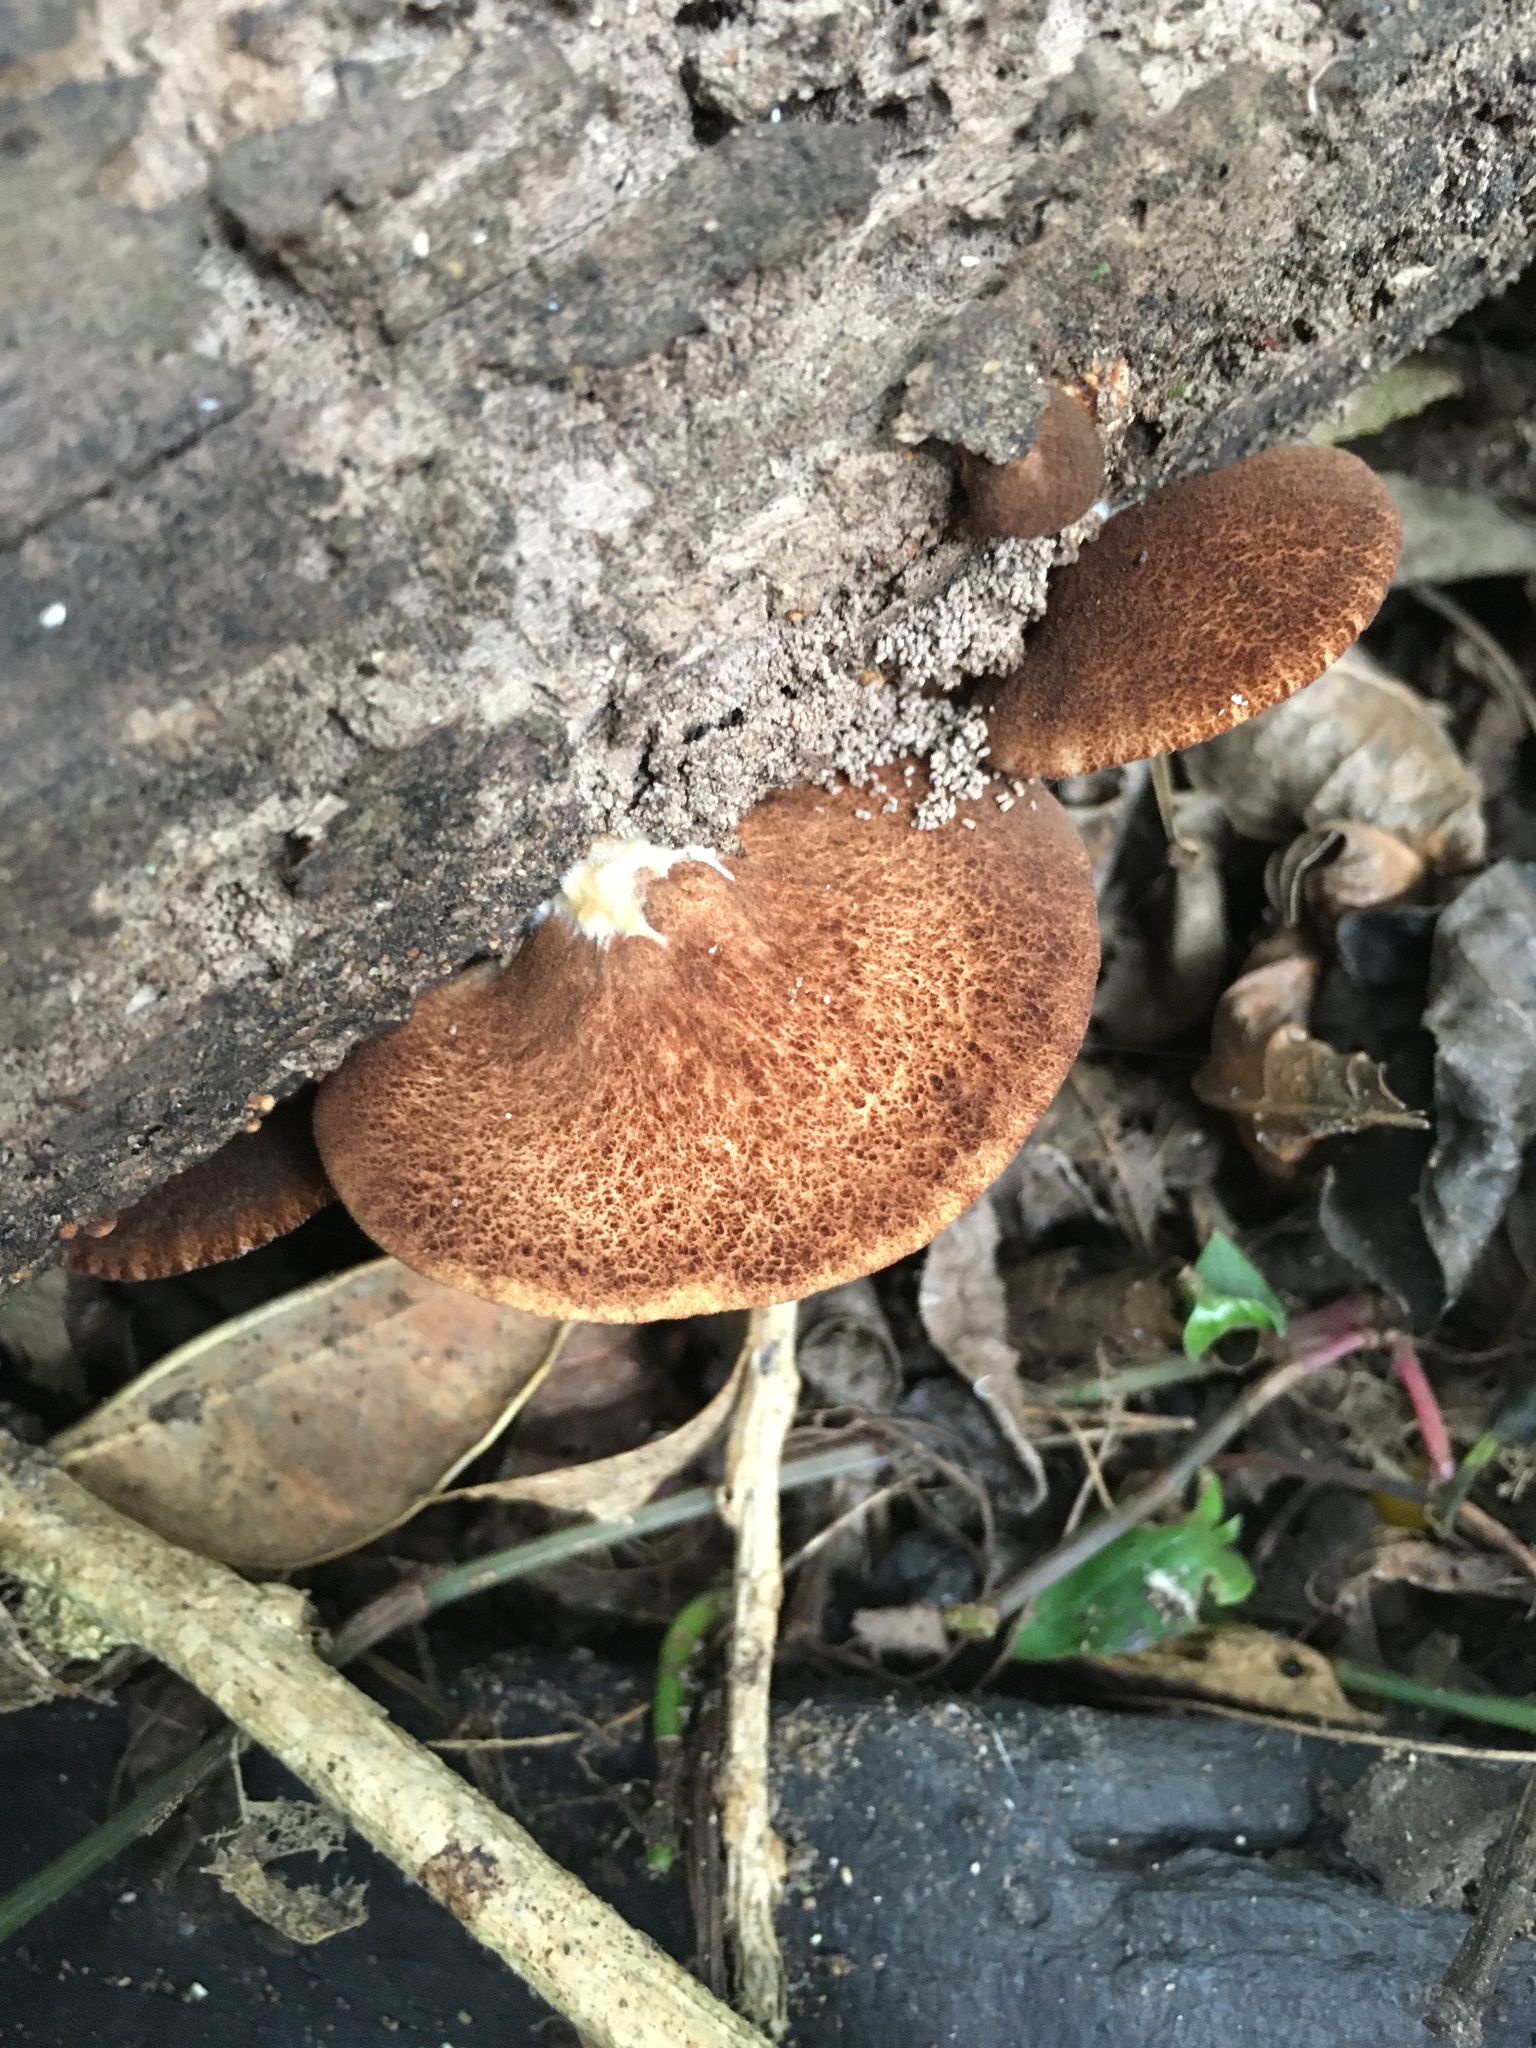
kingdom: Fungi
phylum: Basidiomycota
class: Agaricomycetes
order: Agaricales
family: Crepidotaceae
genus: Crepidotus
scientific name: Crepidotus fuscovelutinus
